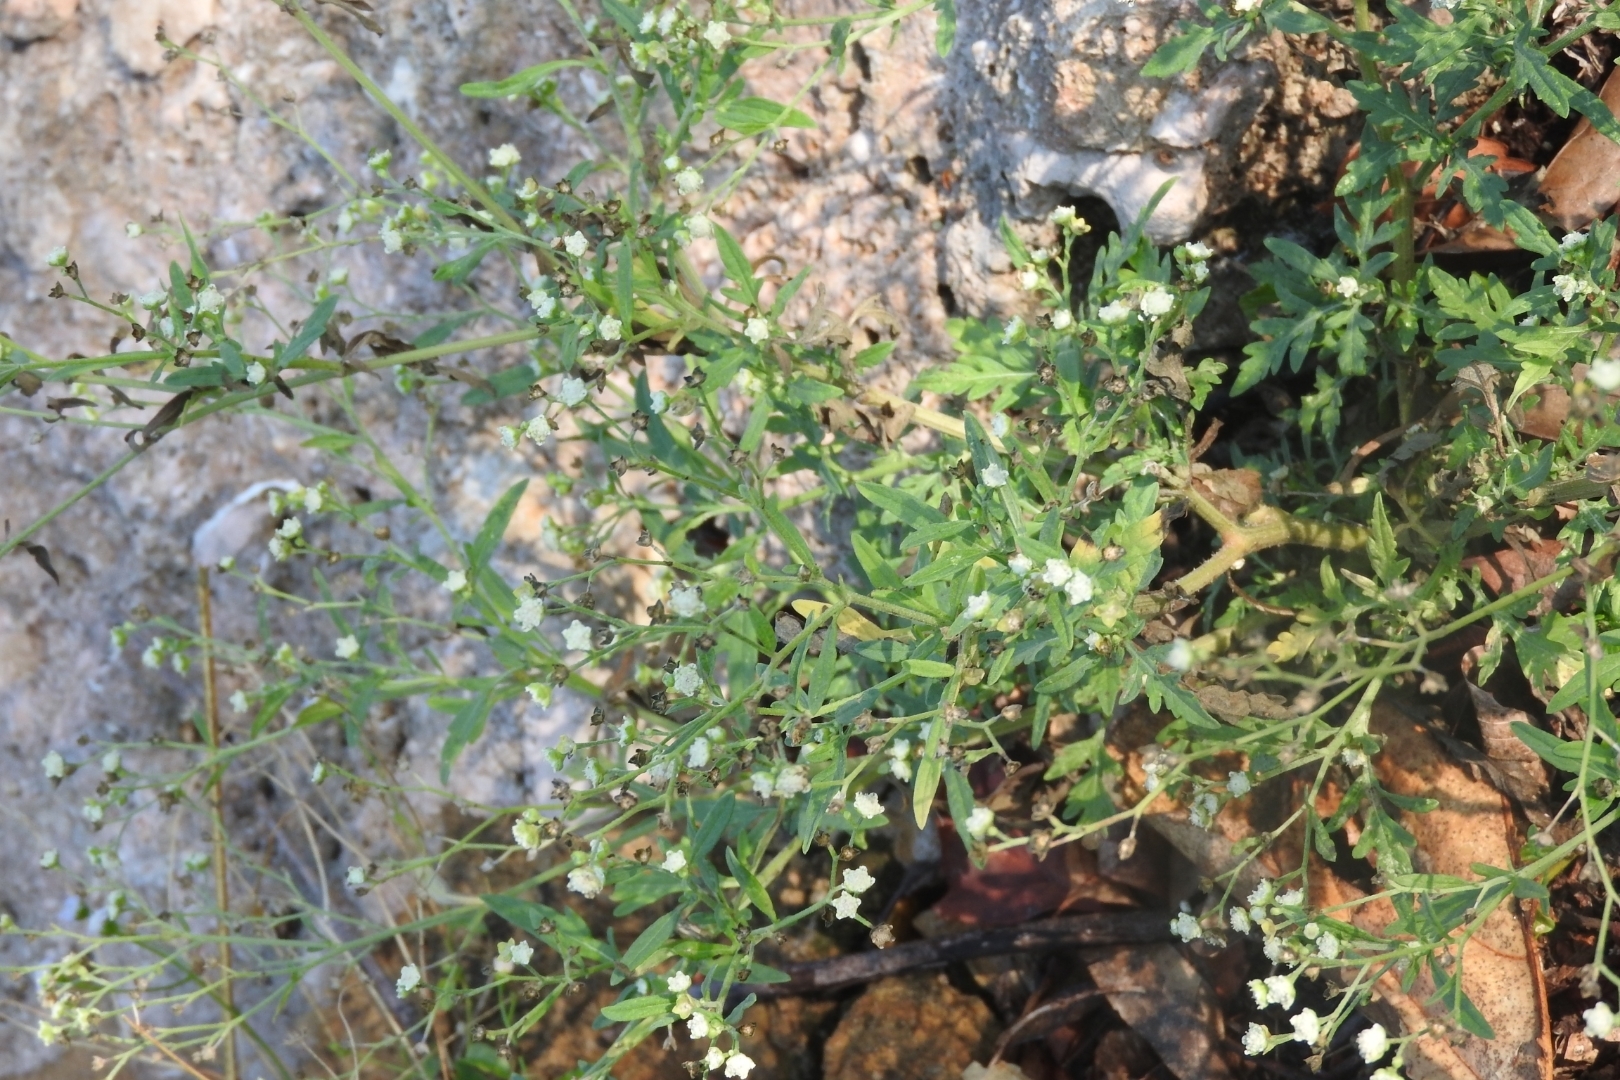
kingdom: Plantae
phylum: Tracheophyta
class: Magnoliopsida
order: Asterales
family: Asteraceae
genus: Parthenium
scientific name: Parthenium hysterophorus
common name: Santa maria feverfew
